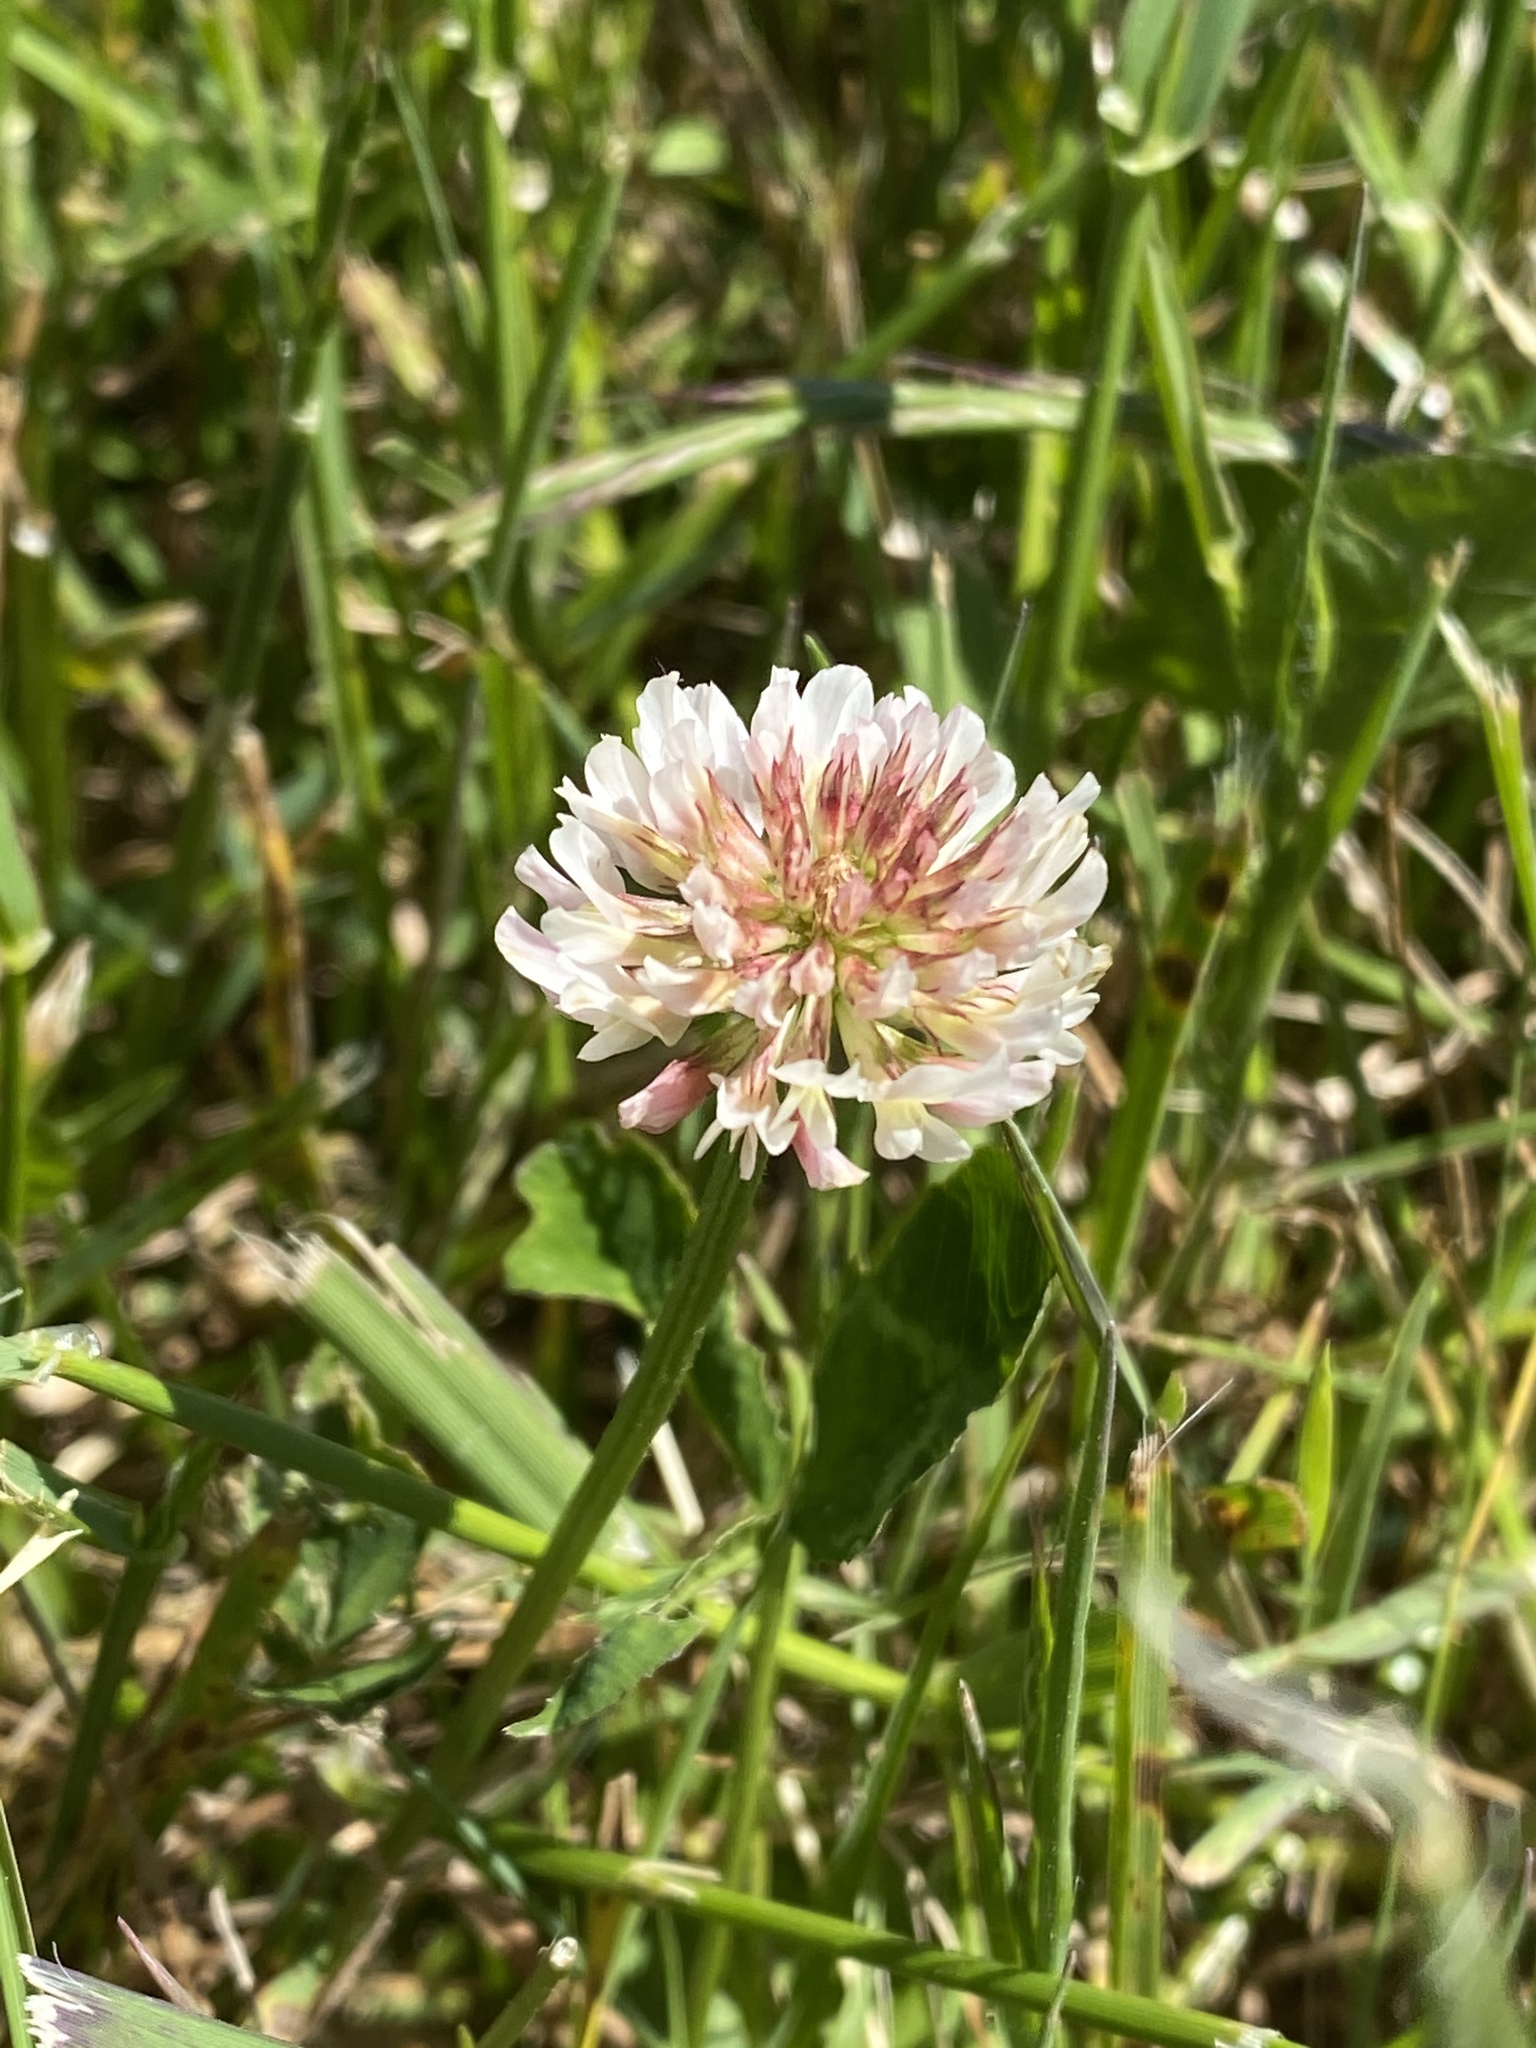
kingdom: Plantae
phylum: Tracheophyta
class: Magnoliopsida
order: Fabales
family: Fabaceae
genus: Trifolium
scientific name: Trifolium repens
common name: White clover
